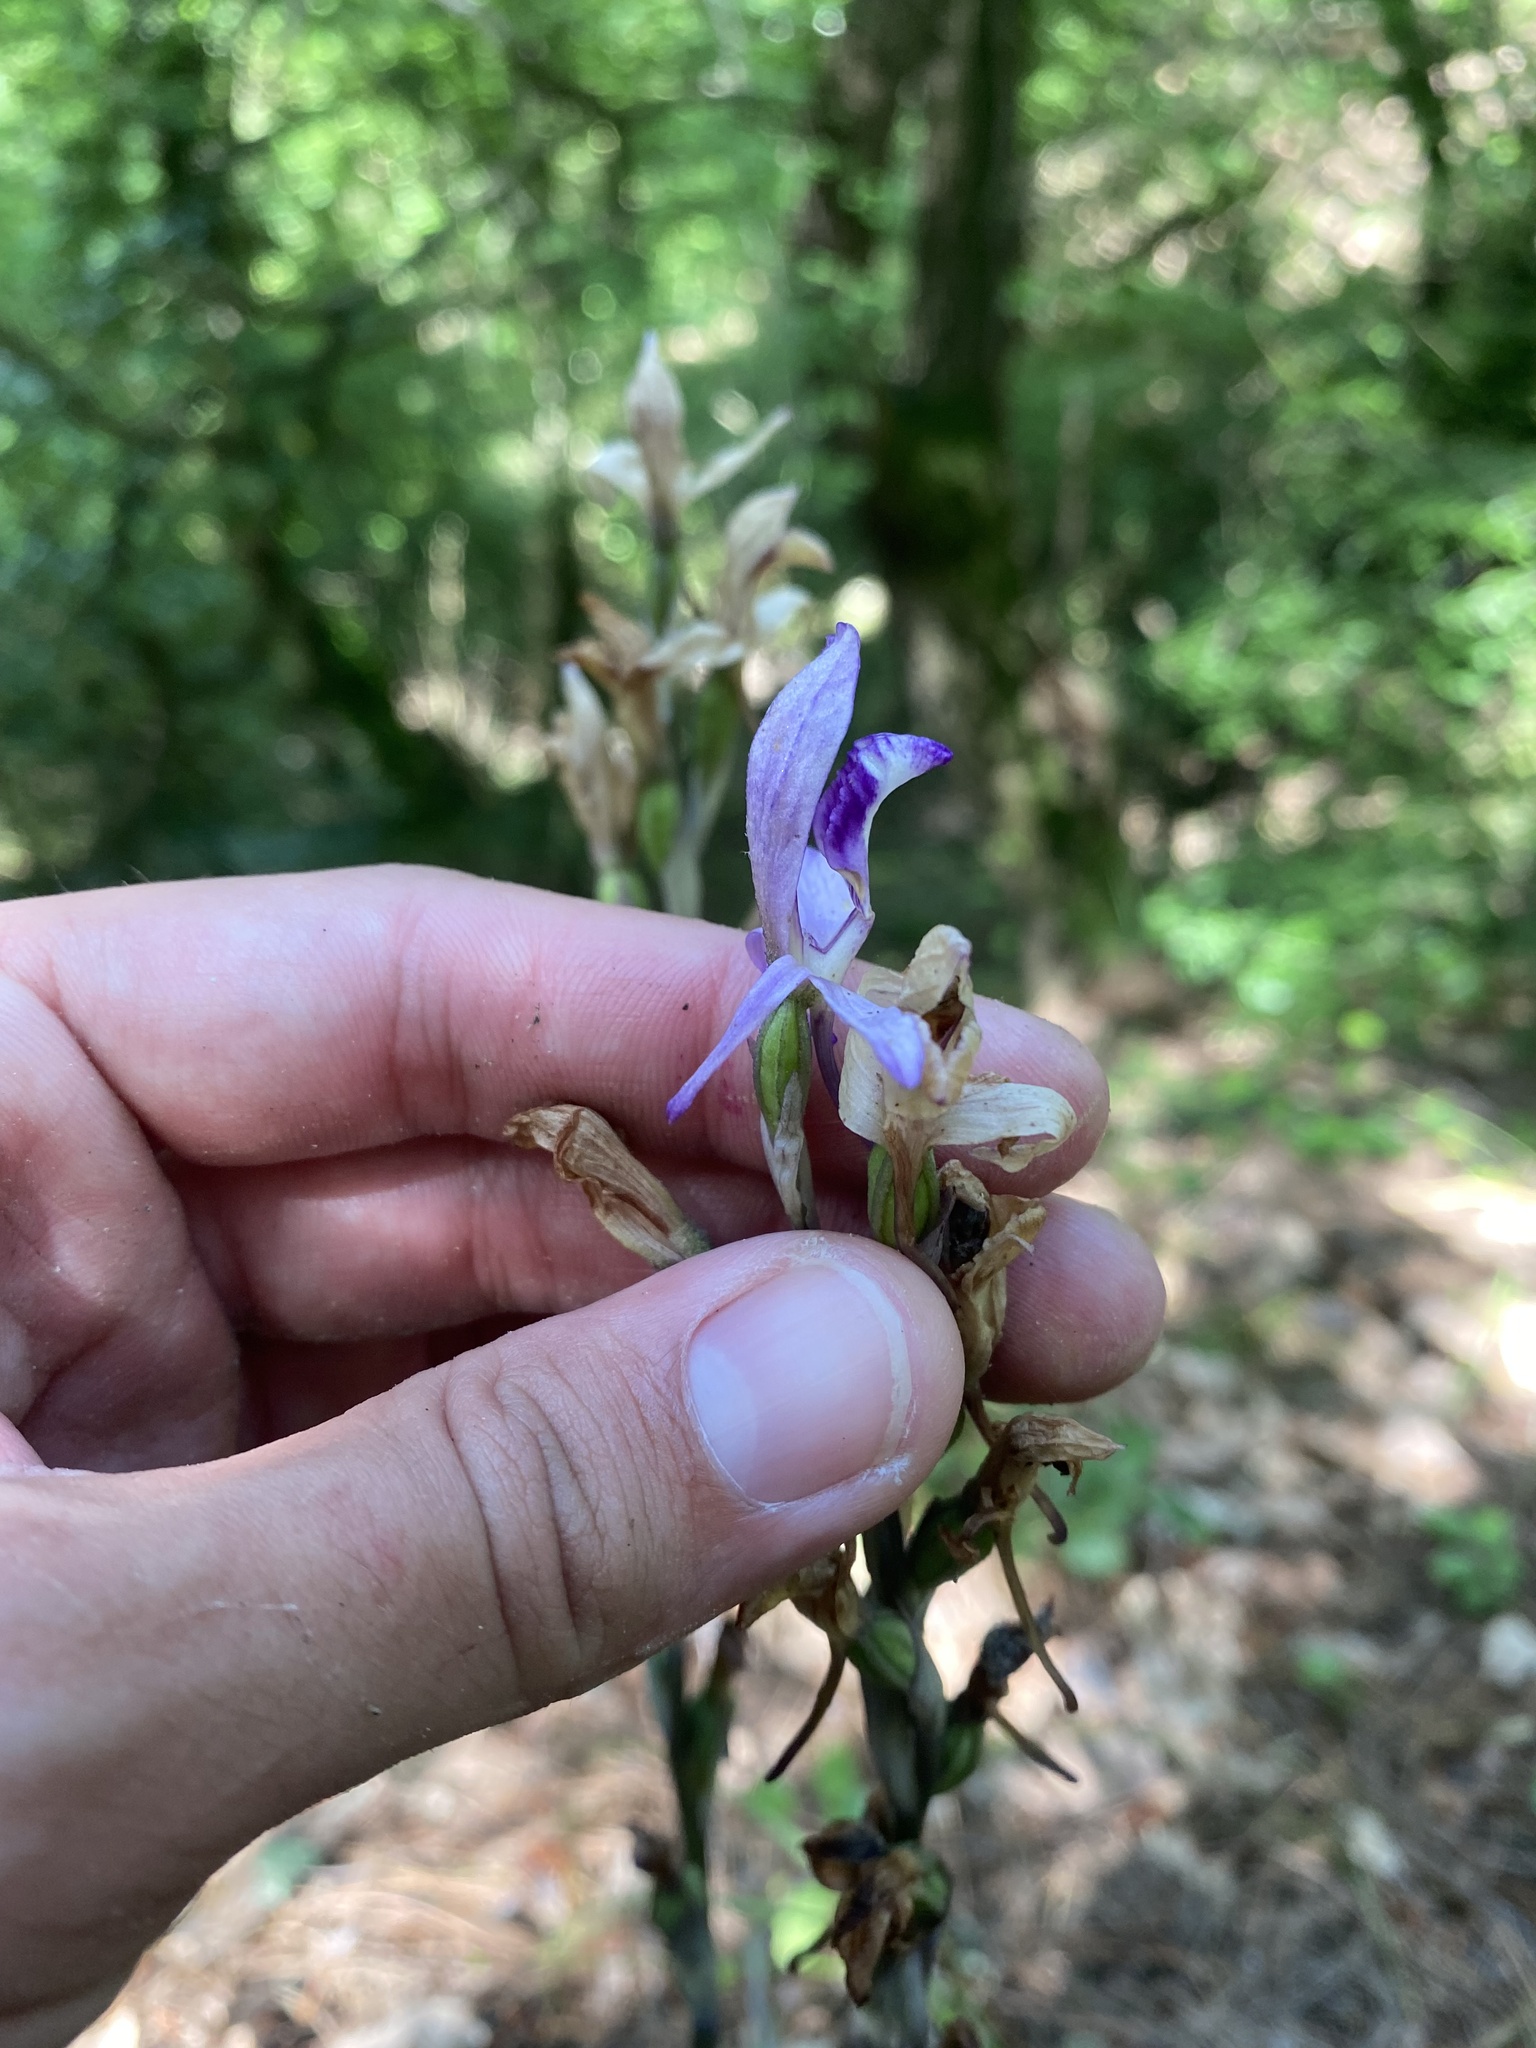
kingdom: Plantae
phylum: Tracheophyta
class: Liliopsida
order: Asparagales
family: Orchidaceae
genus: Limodorum
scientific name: Limodorum abortivum
